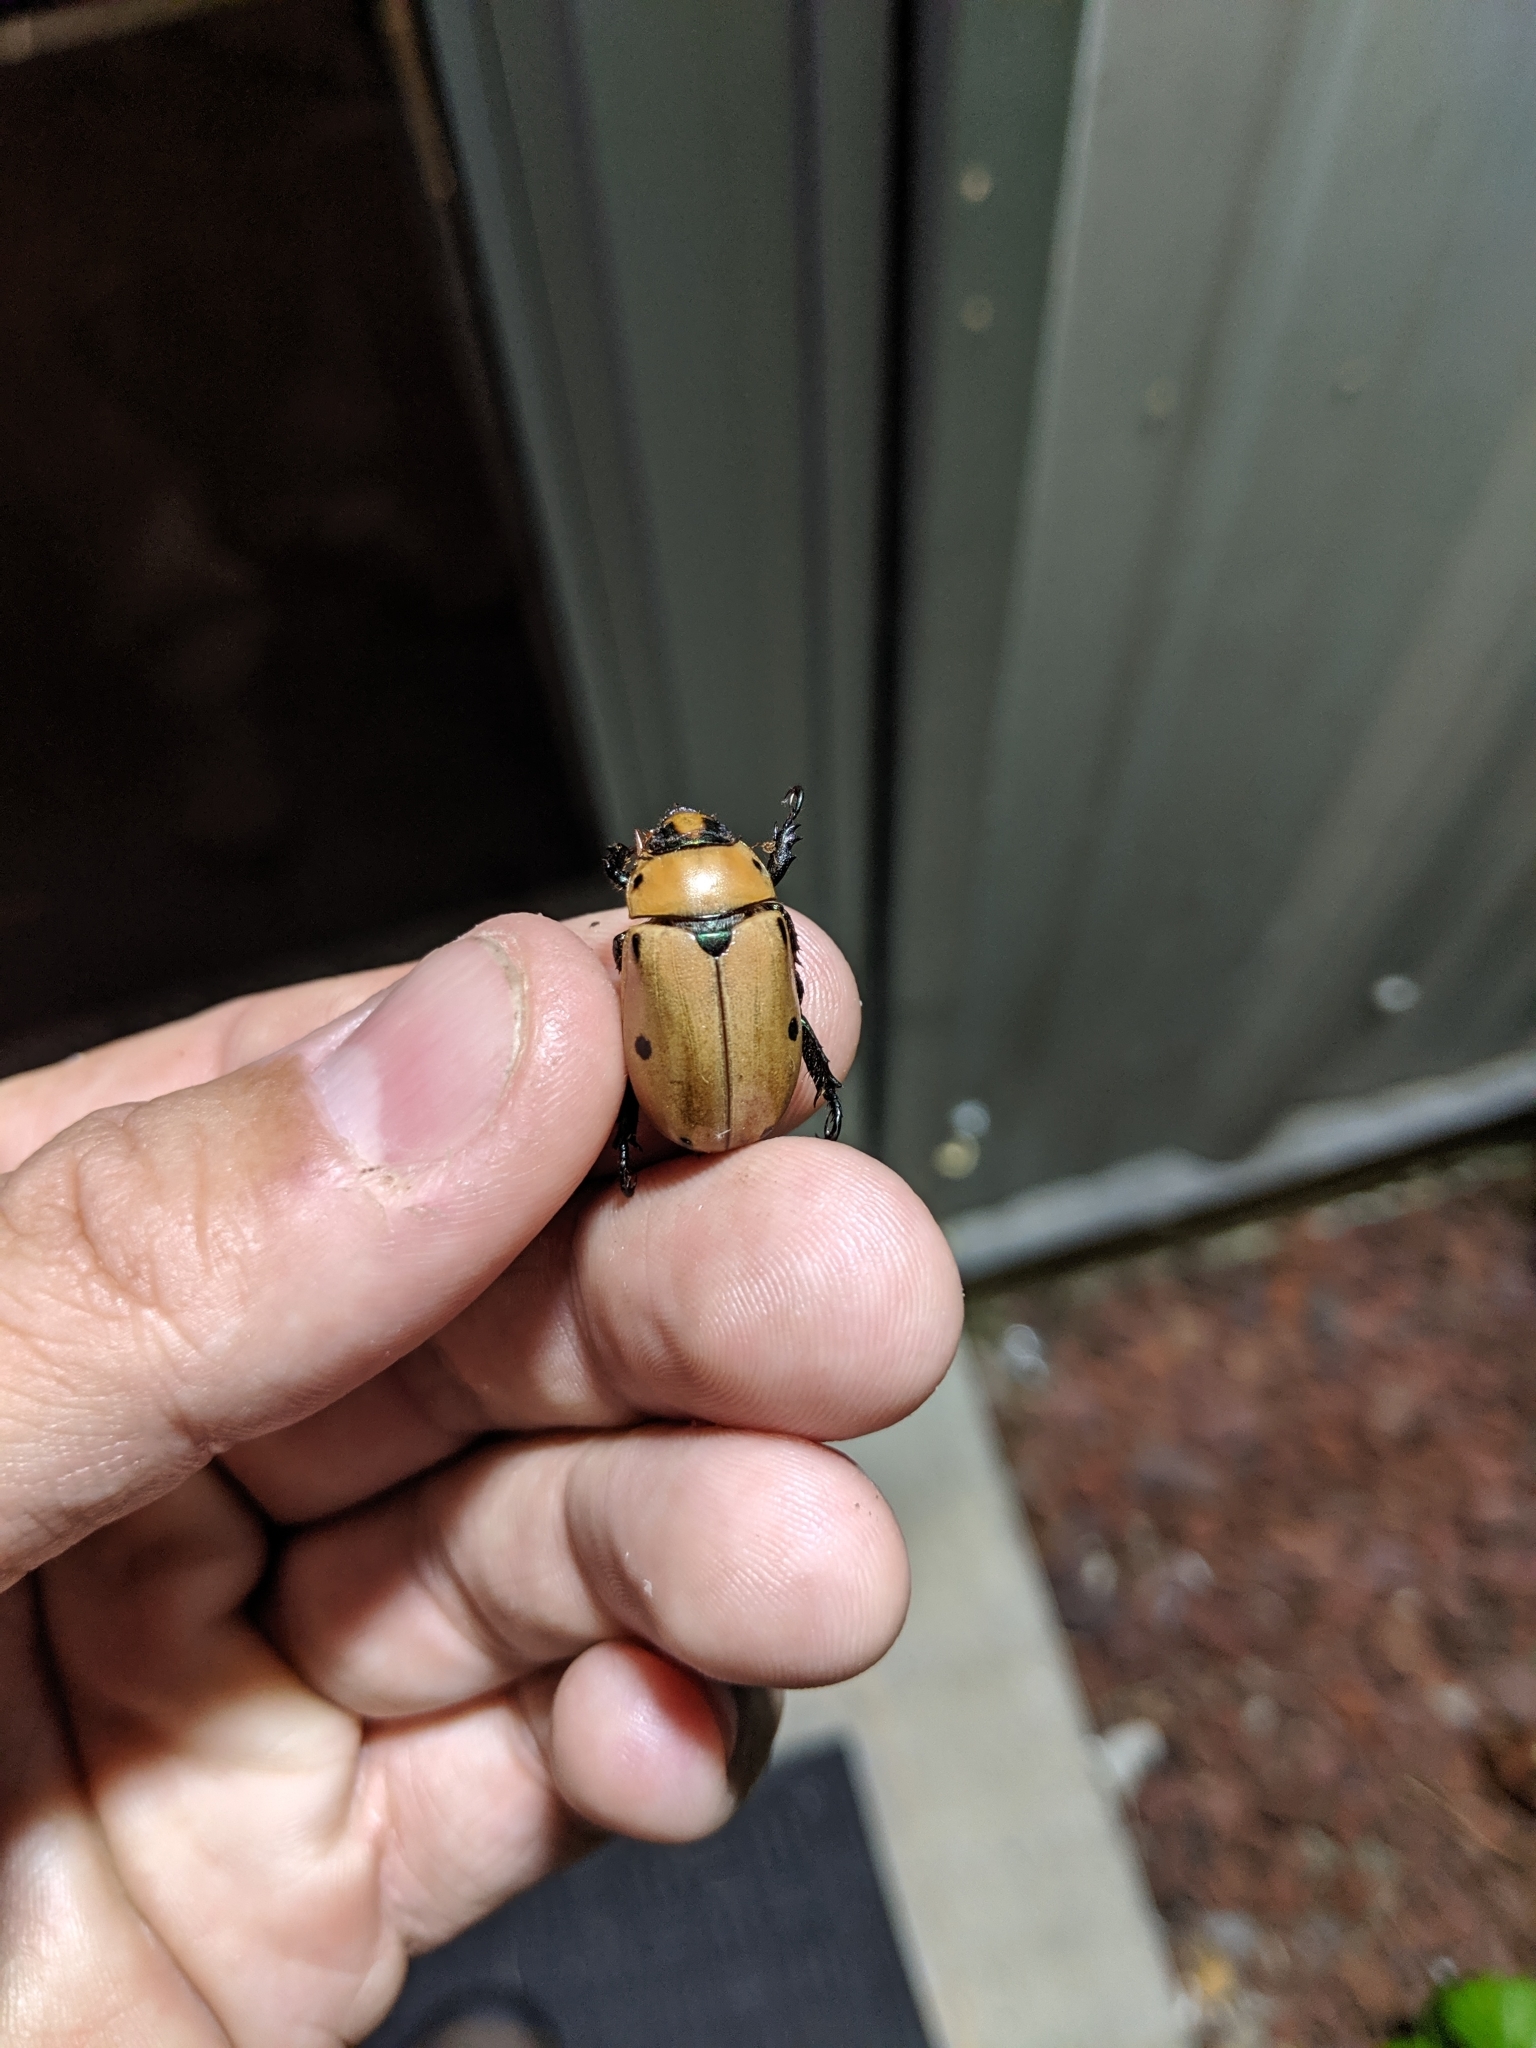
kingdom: Animalia
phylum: Arthropoda
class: Insecta
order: Coleoptera
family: Scarabaeidae
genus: Pelidnota
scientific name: Pelidnota punctata
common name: Grapevine beetle
